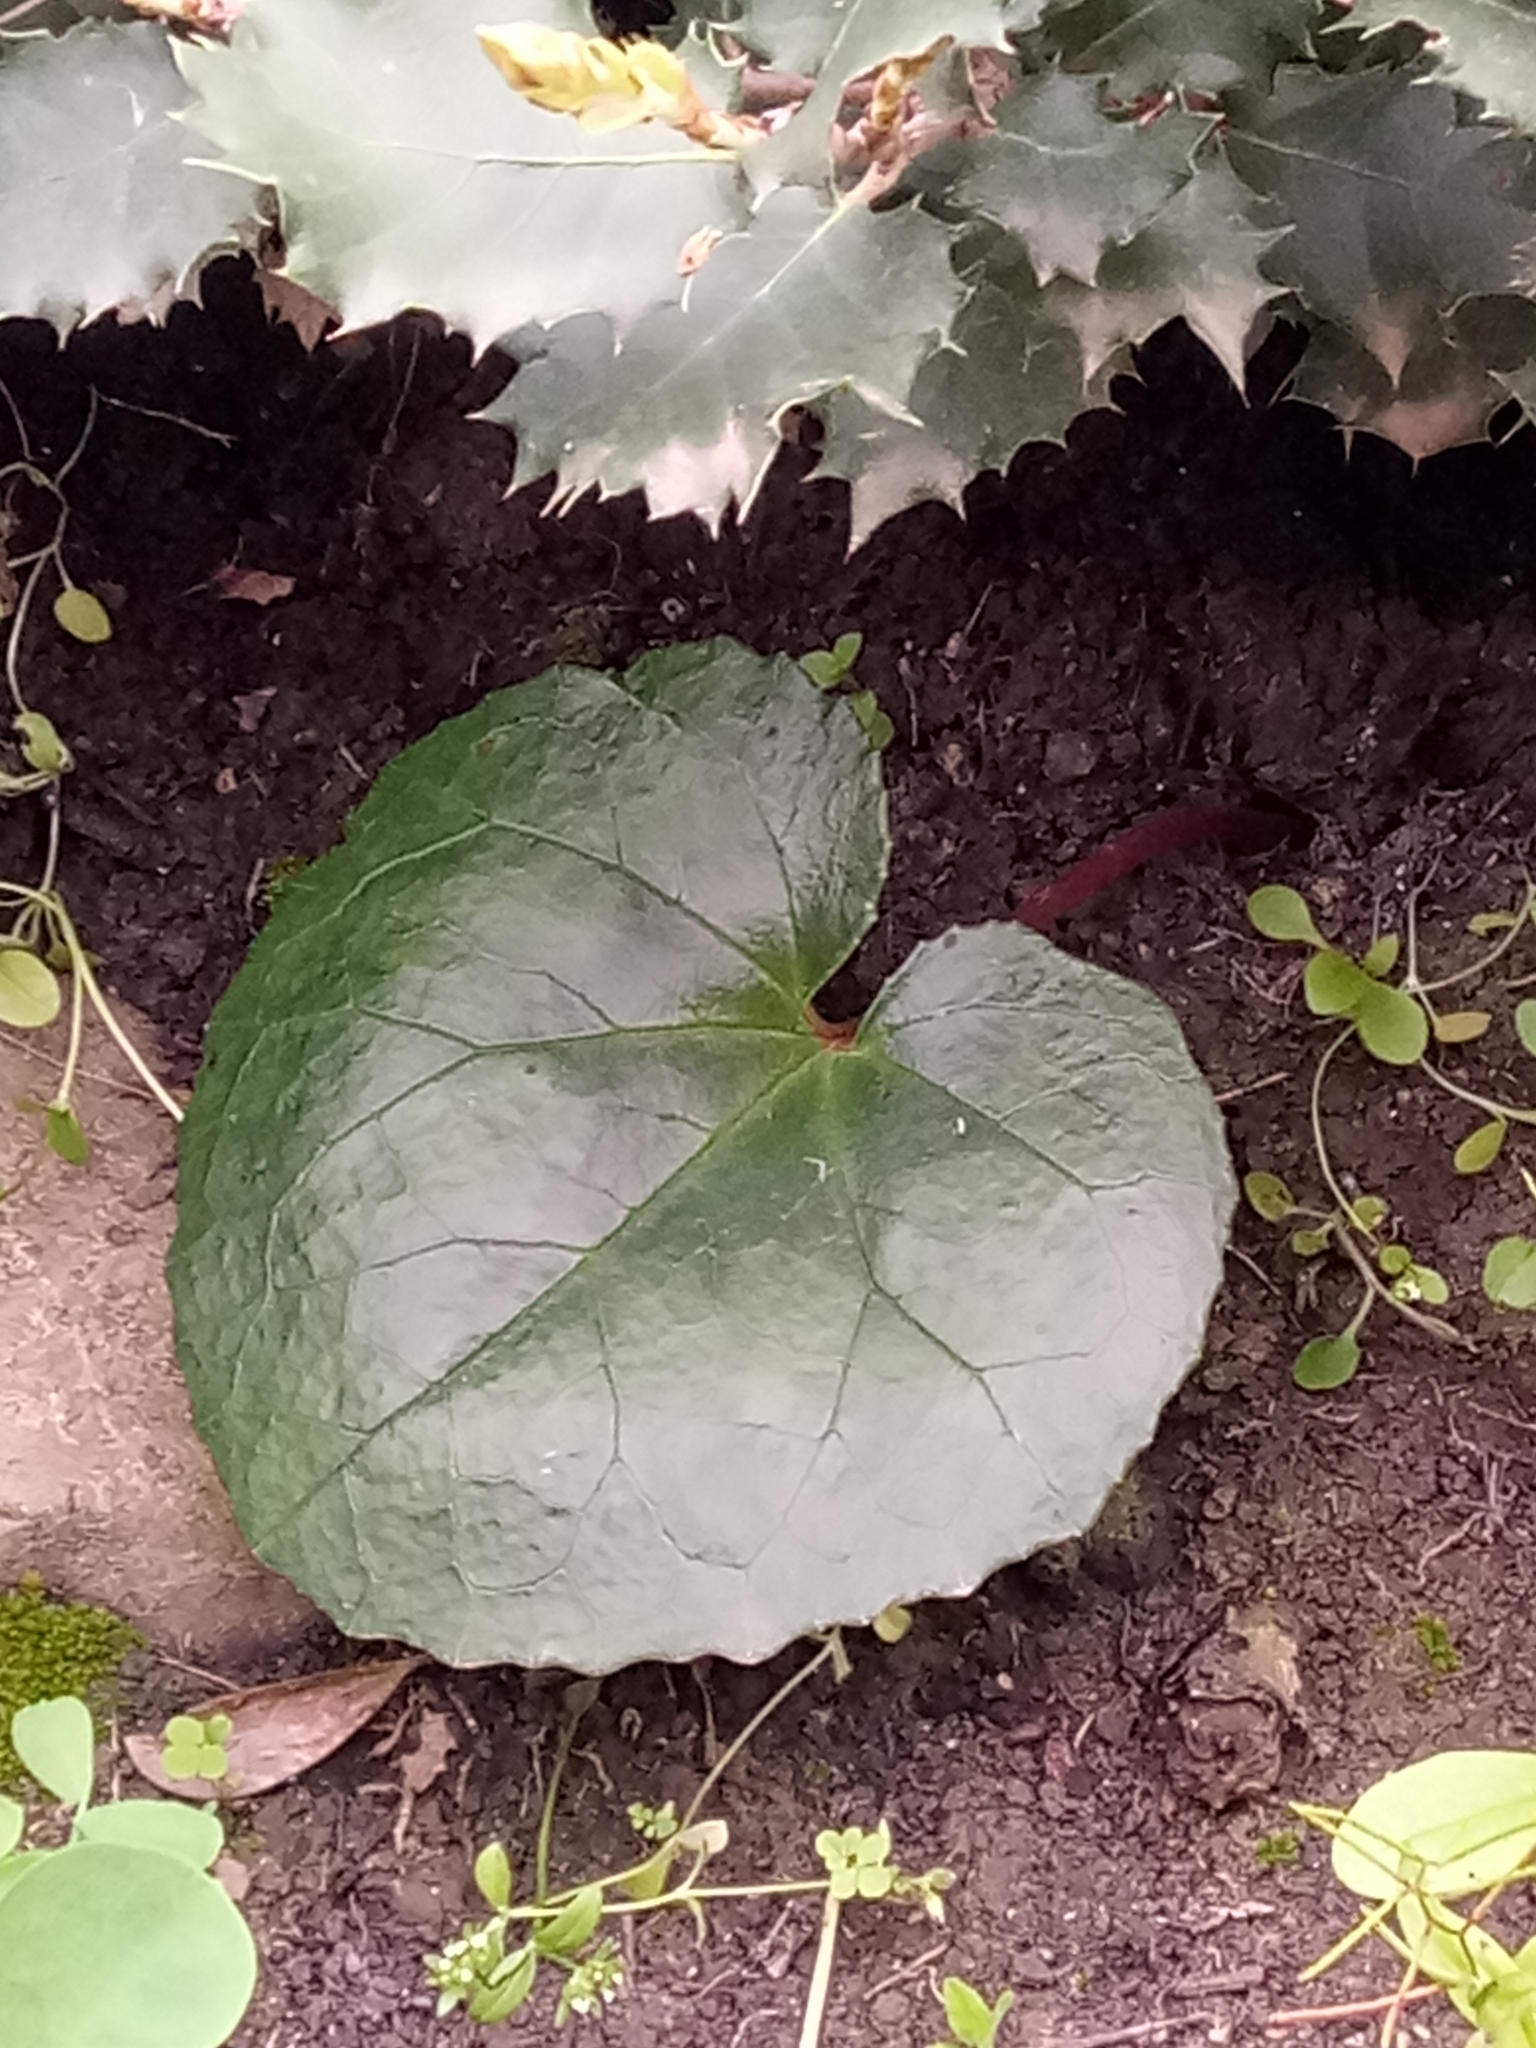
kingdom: Plantae
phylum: Tracheophyta
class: Magnoliopsida
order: Ericales
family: Primulaceae
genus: Cyclamen
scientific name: Cyclamen africanum
